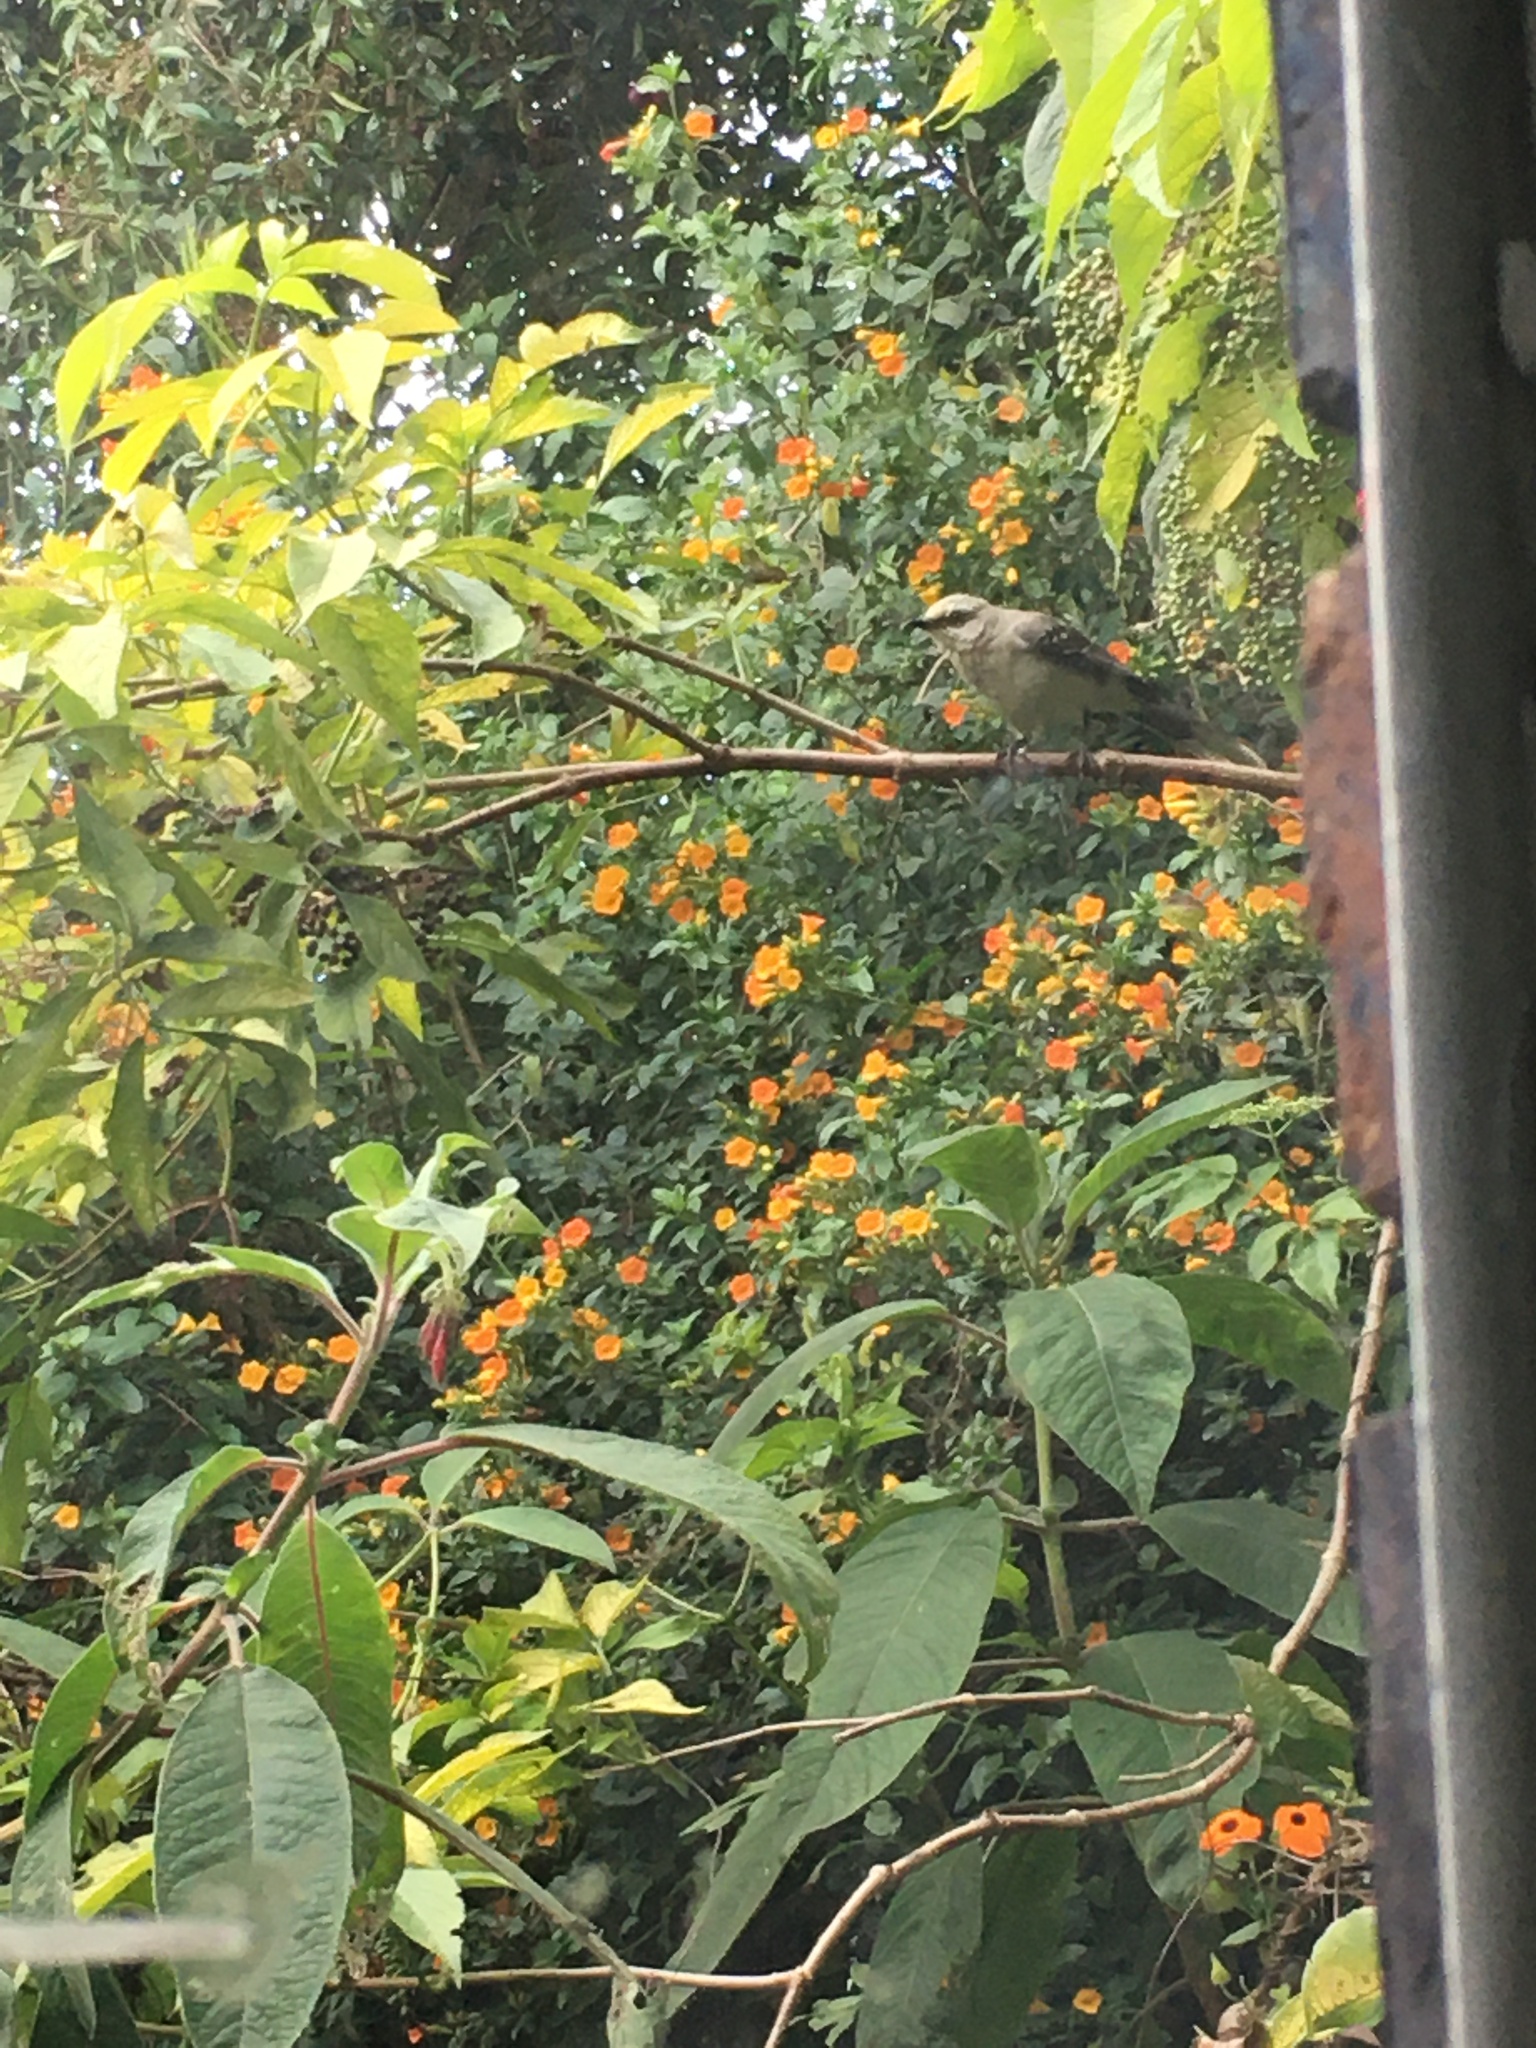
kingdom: Animalia
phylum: Chordata
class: Aves
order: Passeriformes
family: Mimidae
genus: Mimus
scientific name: Mimus gilvus
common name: Tropical mockingbird
